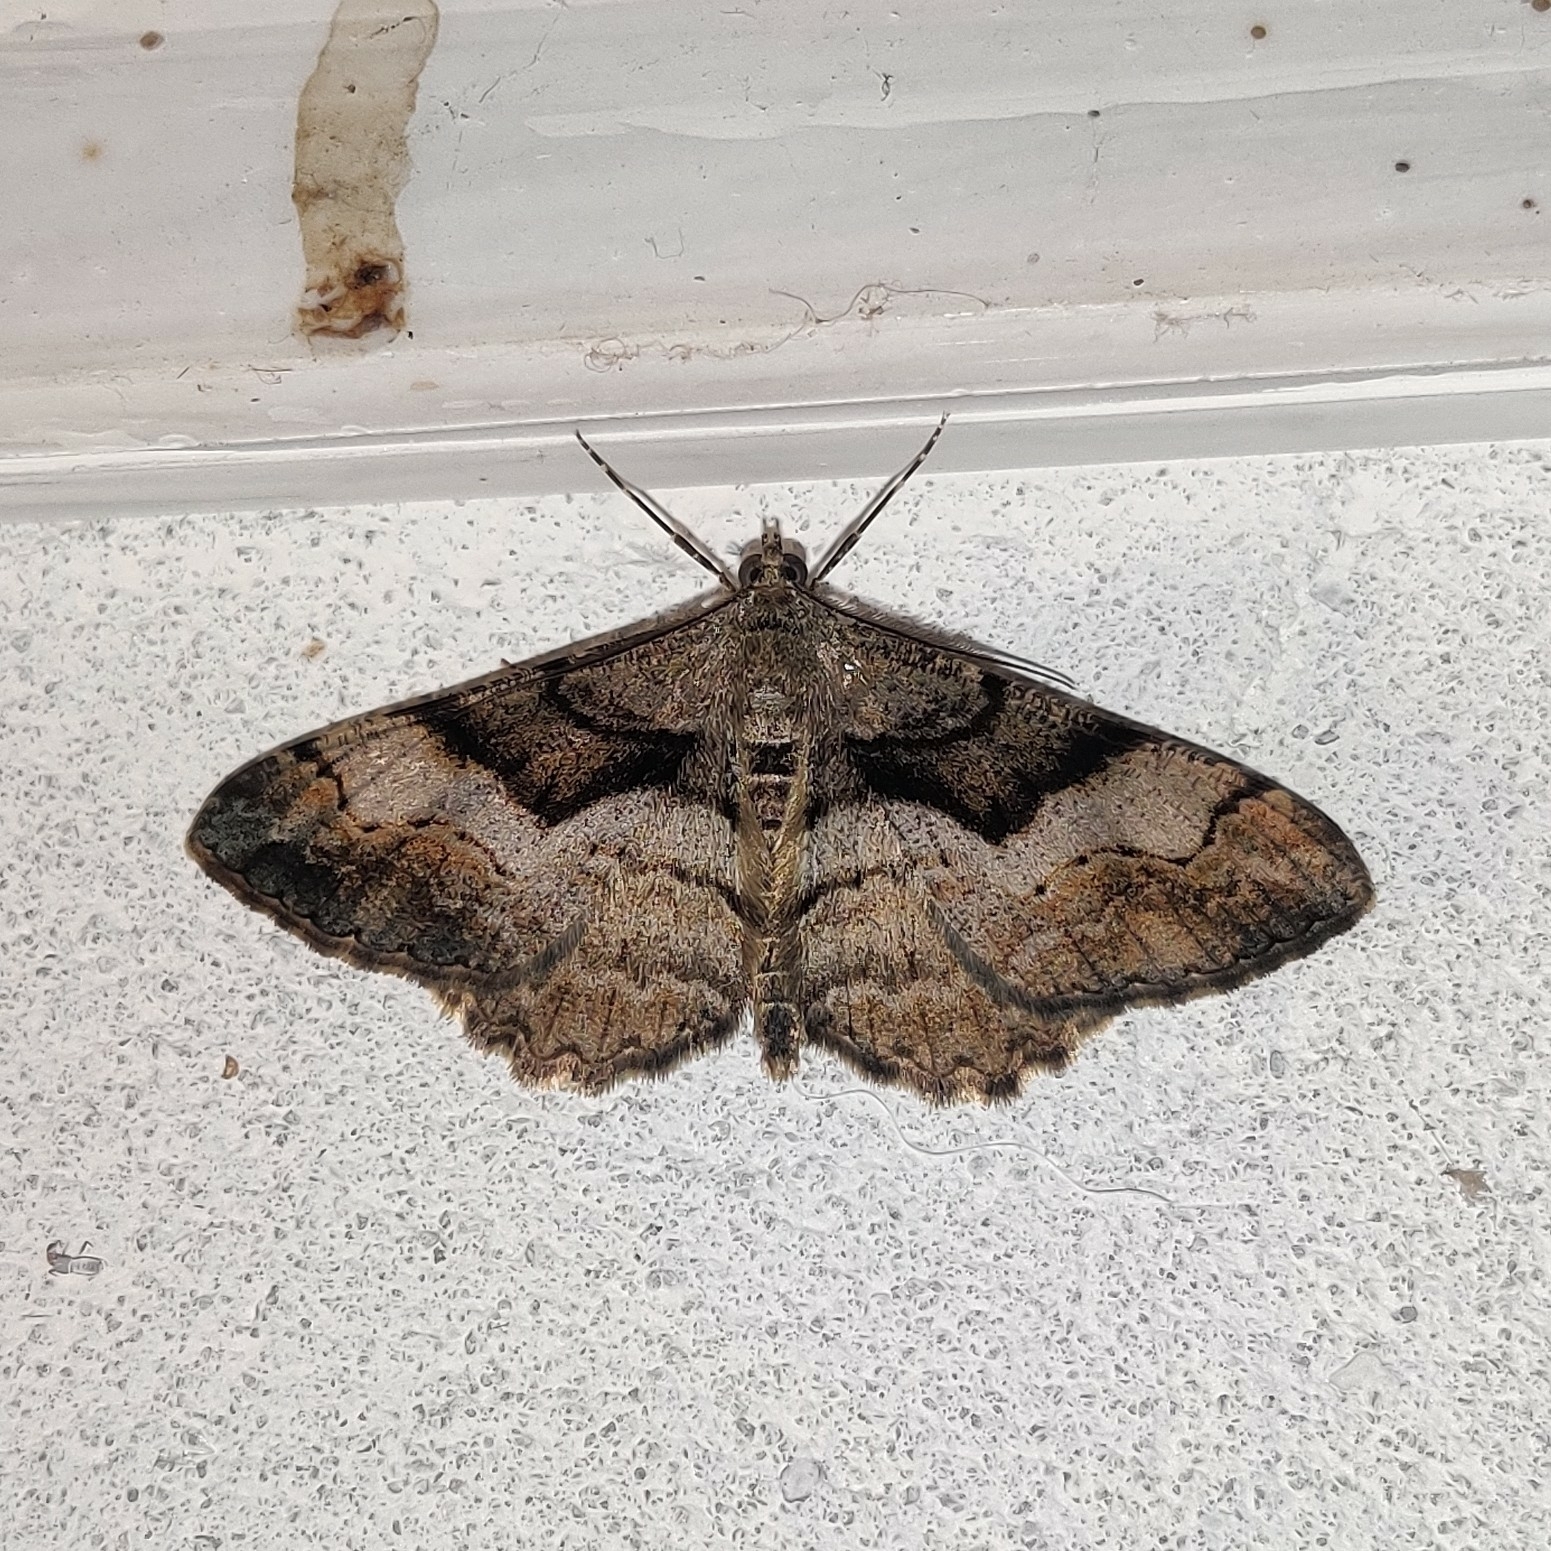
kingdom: Animalia
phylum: Arthropoda
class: Insecta
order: Lepidoptera
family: Geometridae
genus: Alcis
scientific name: Alcis admissaria
